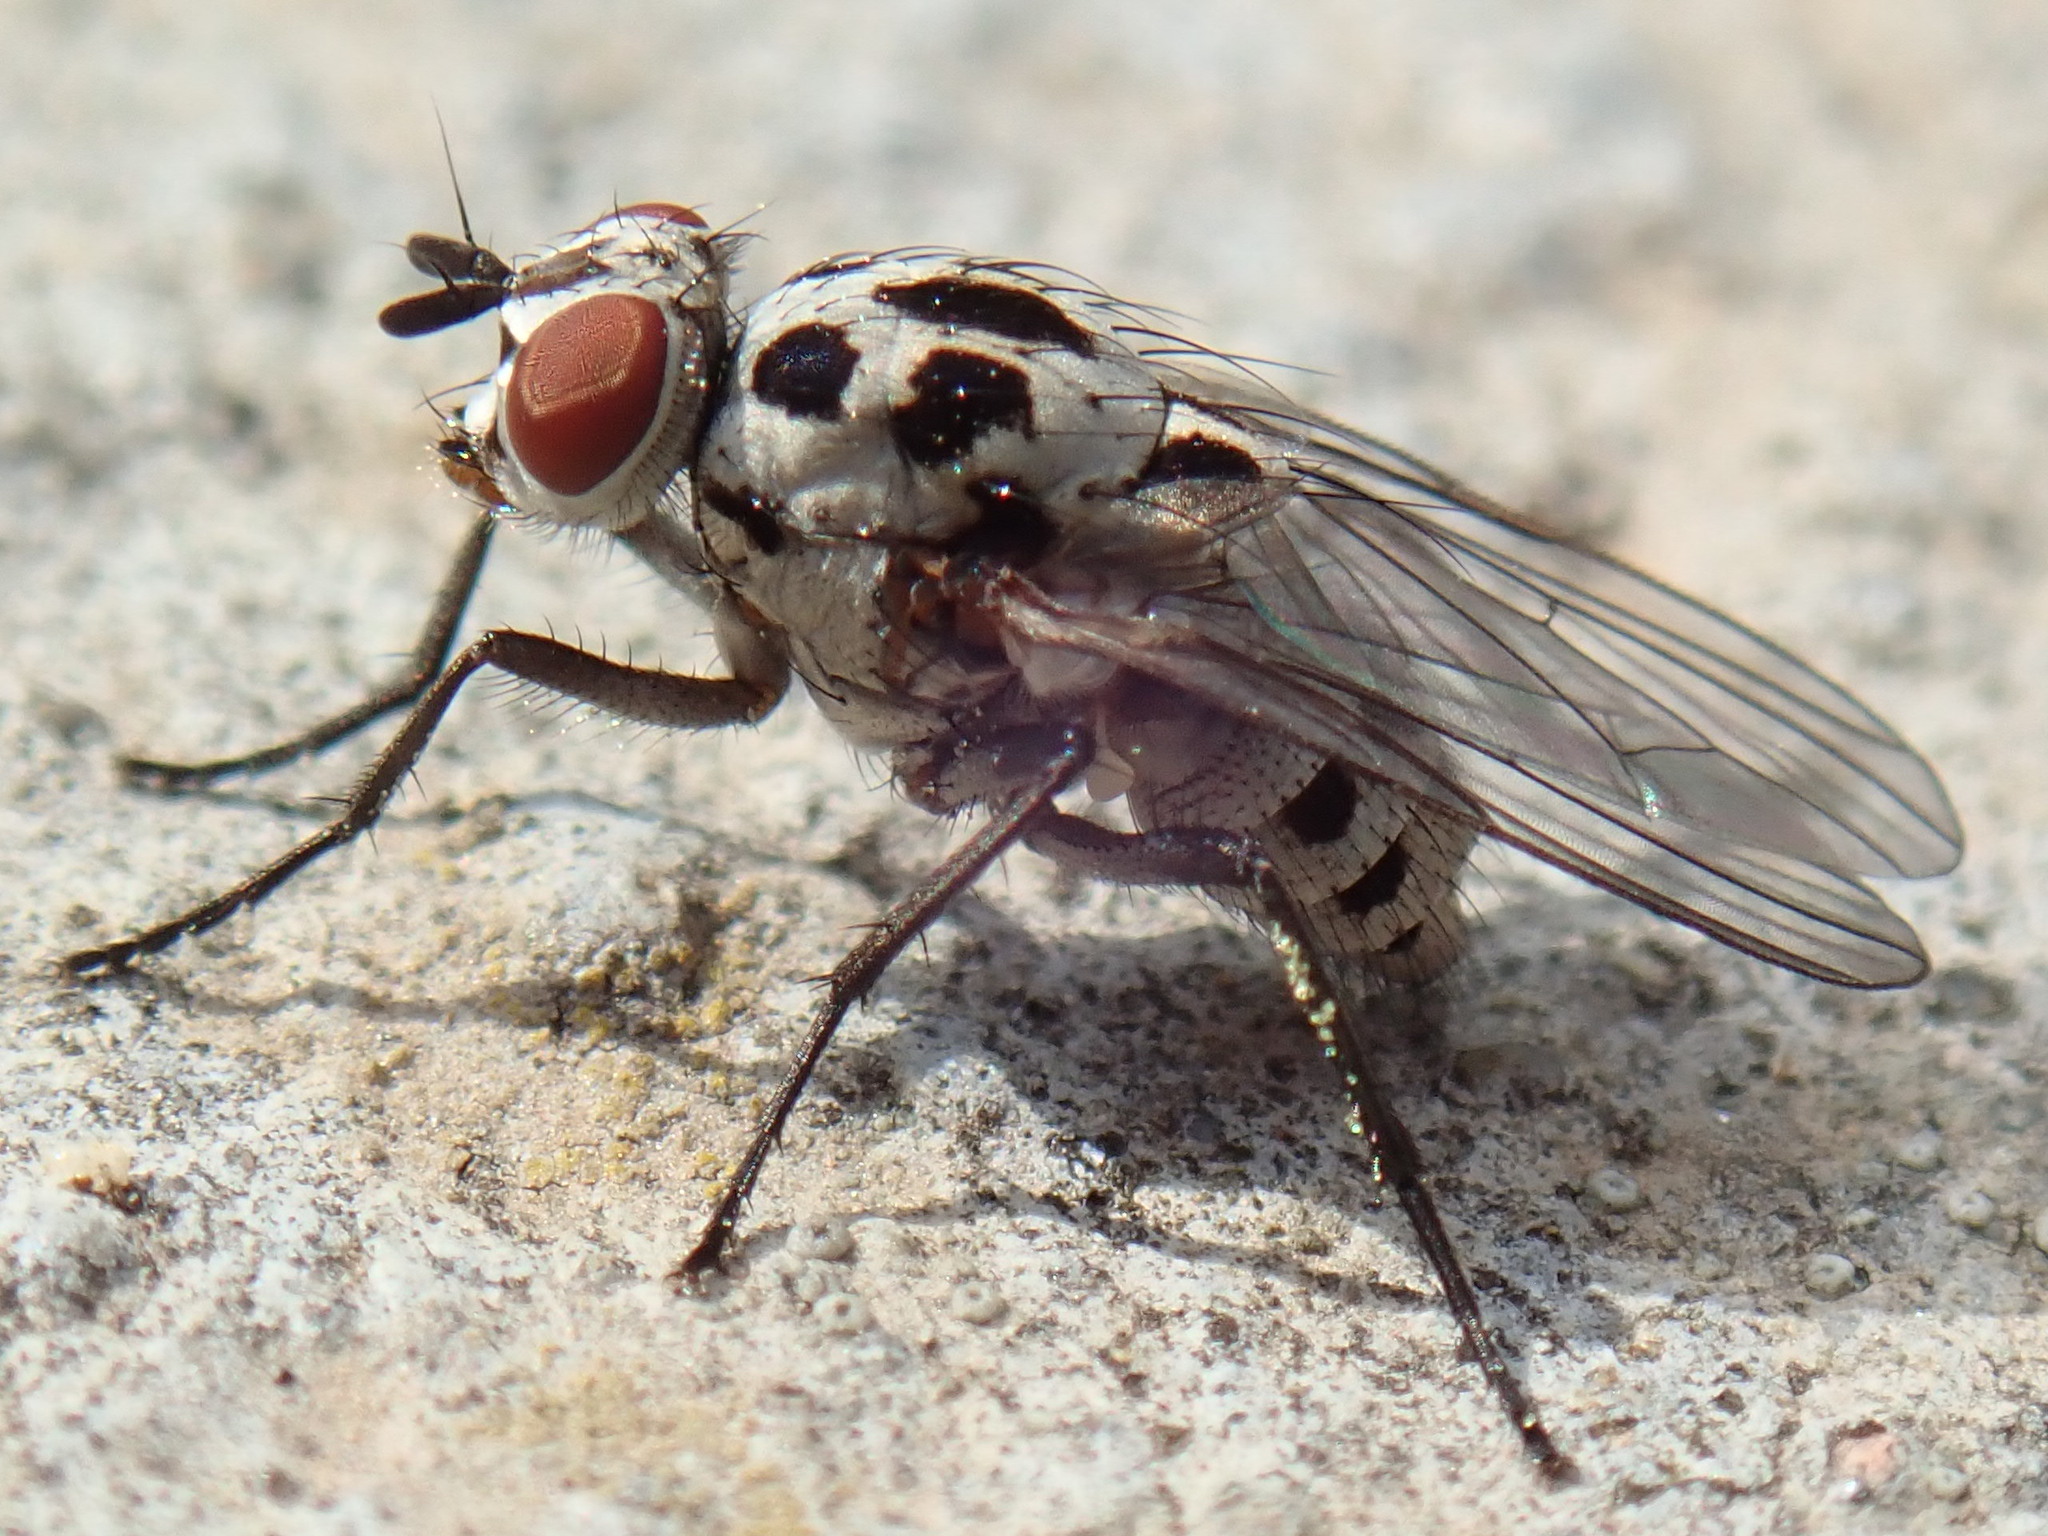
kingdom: Animalia
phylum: Arthropoda
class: Insecta
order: Diptera
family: Anthomyiidae
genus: Anthomyia
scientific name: Anthomyia pluvialis
